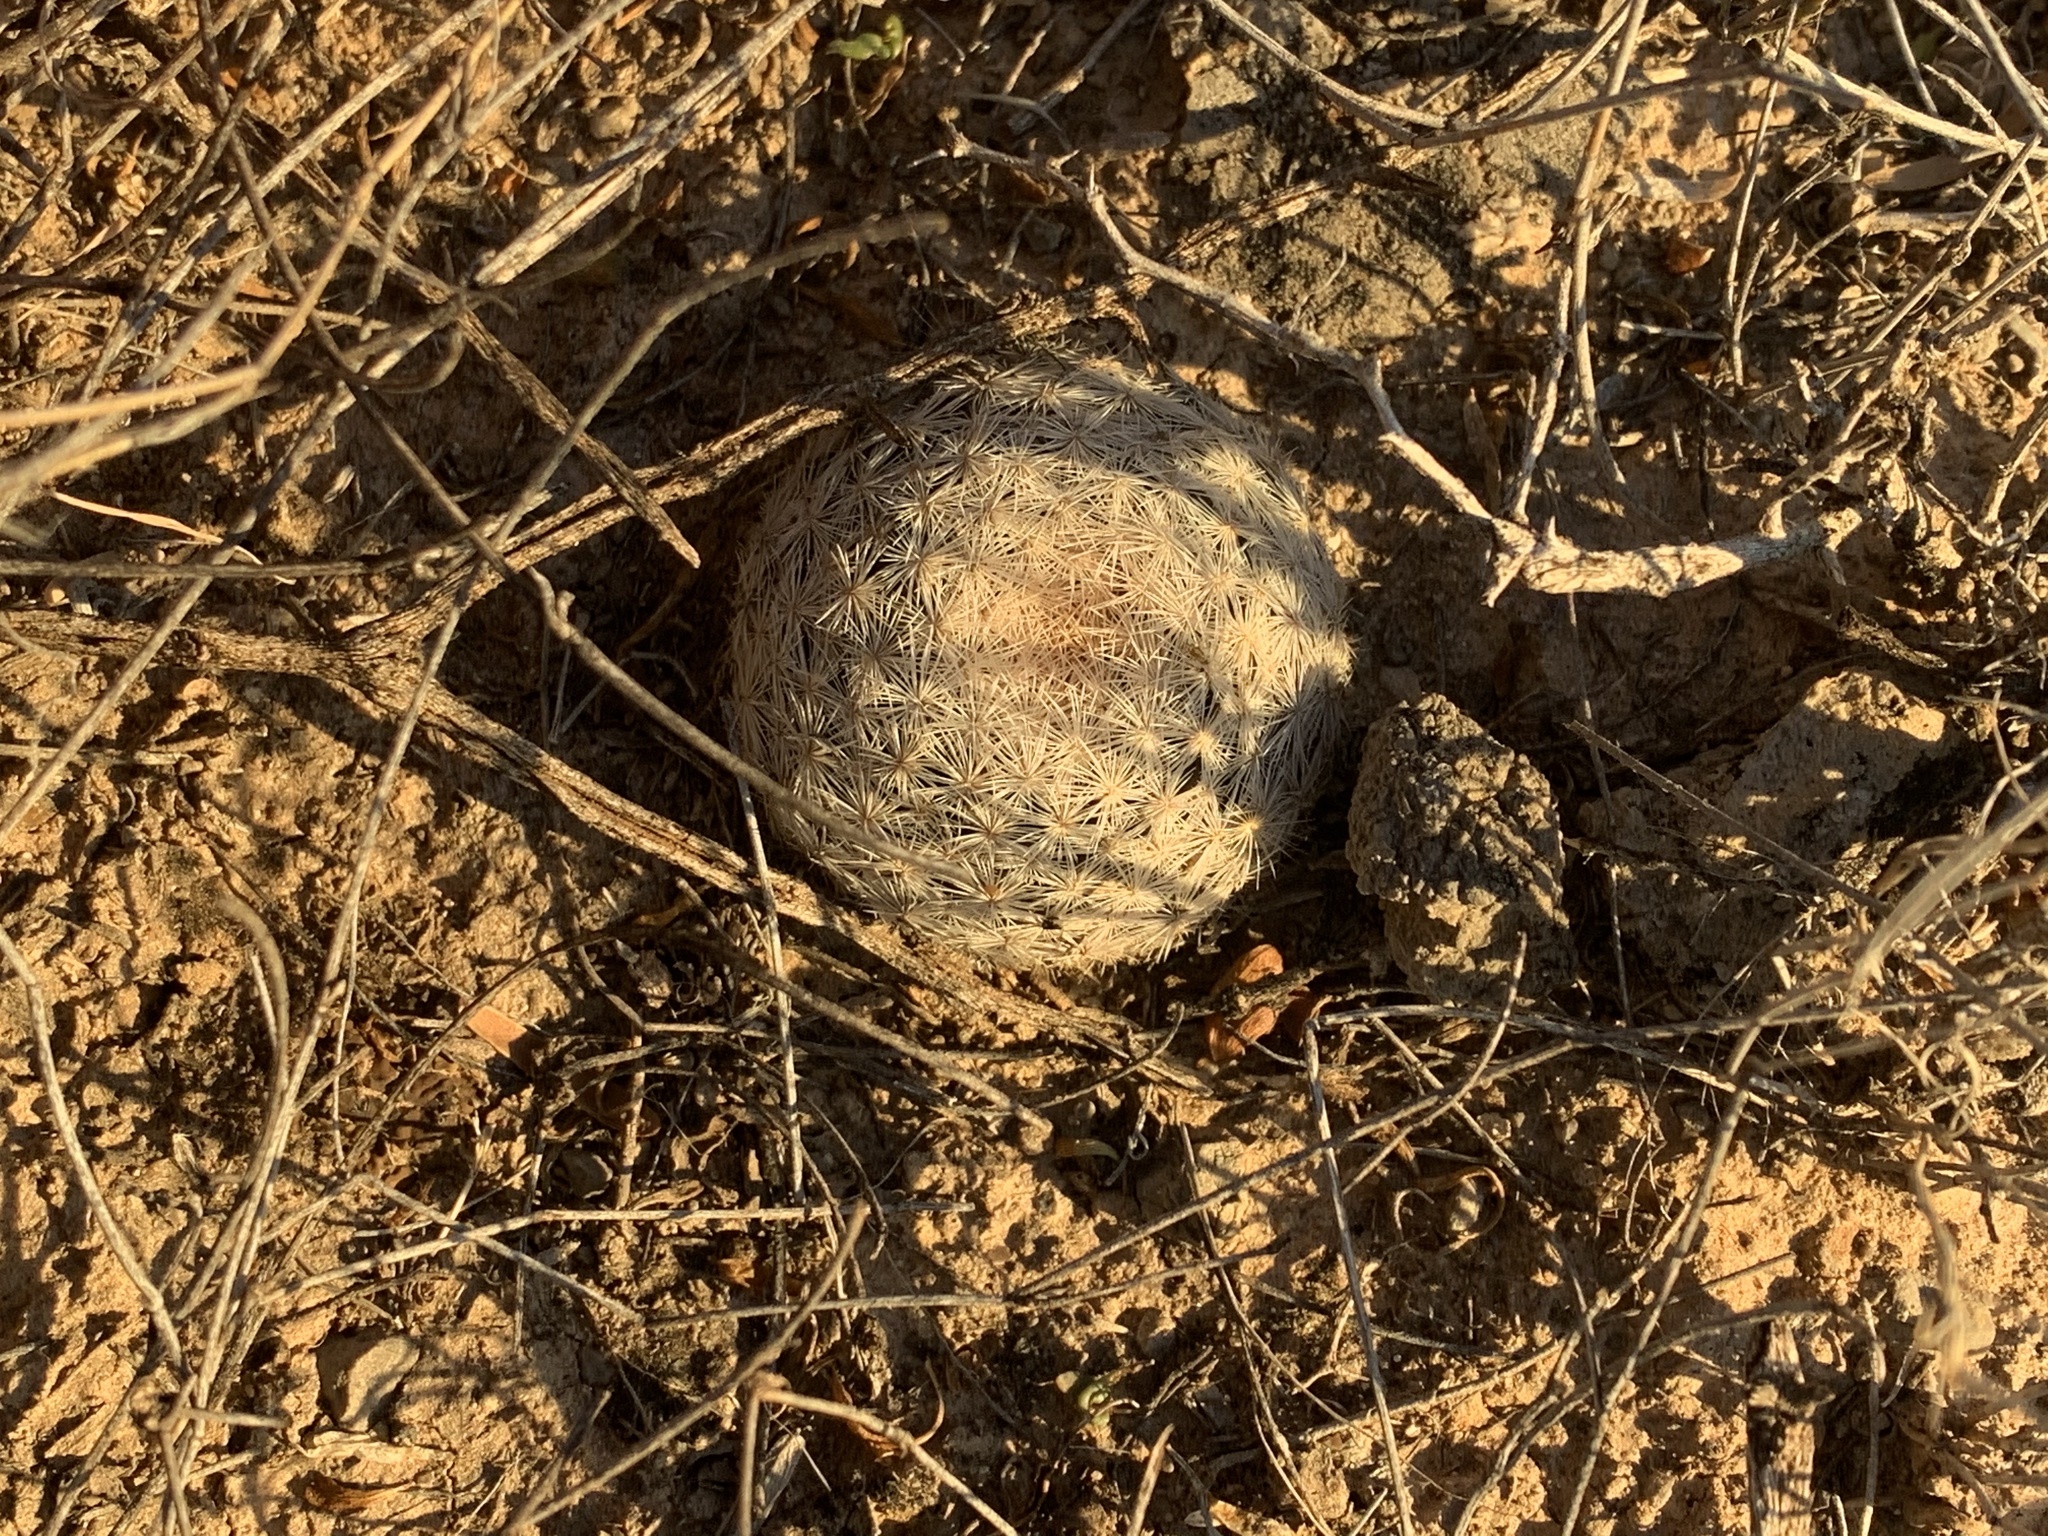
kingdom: Plantae
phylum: Tracheophyta
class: Magnoliopsida
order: Caryophyllales
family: Cactaceae
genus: Mammillaria
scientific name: Mammillaria lasiacantha
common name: Lace-spine nipple cactus
